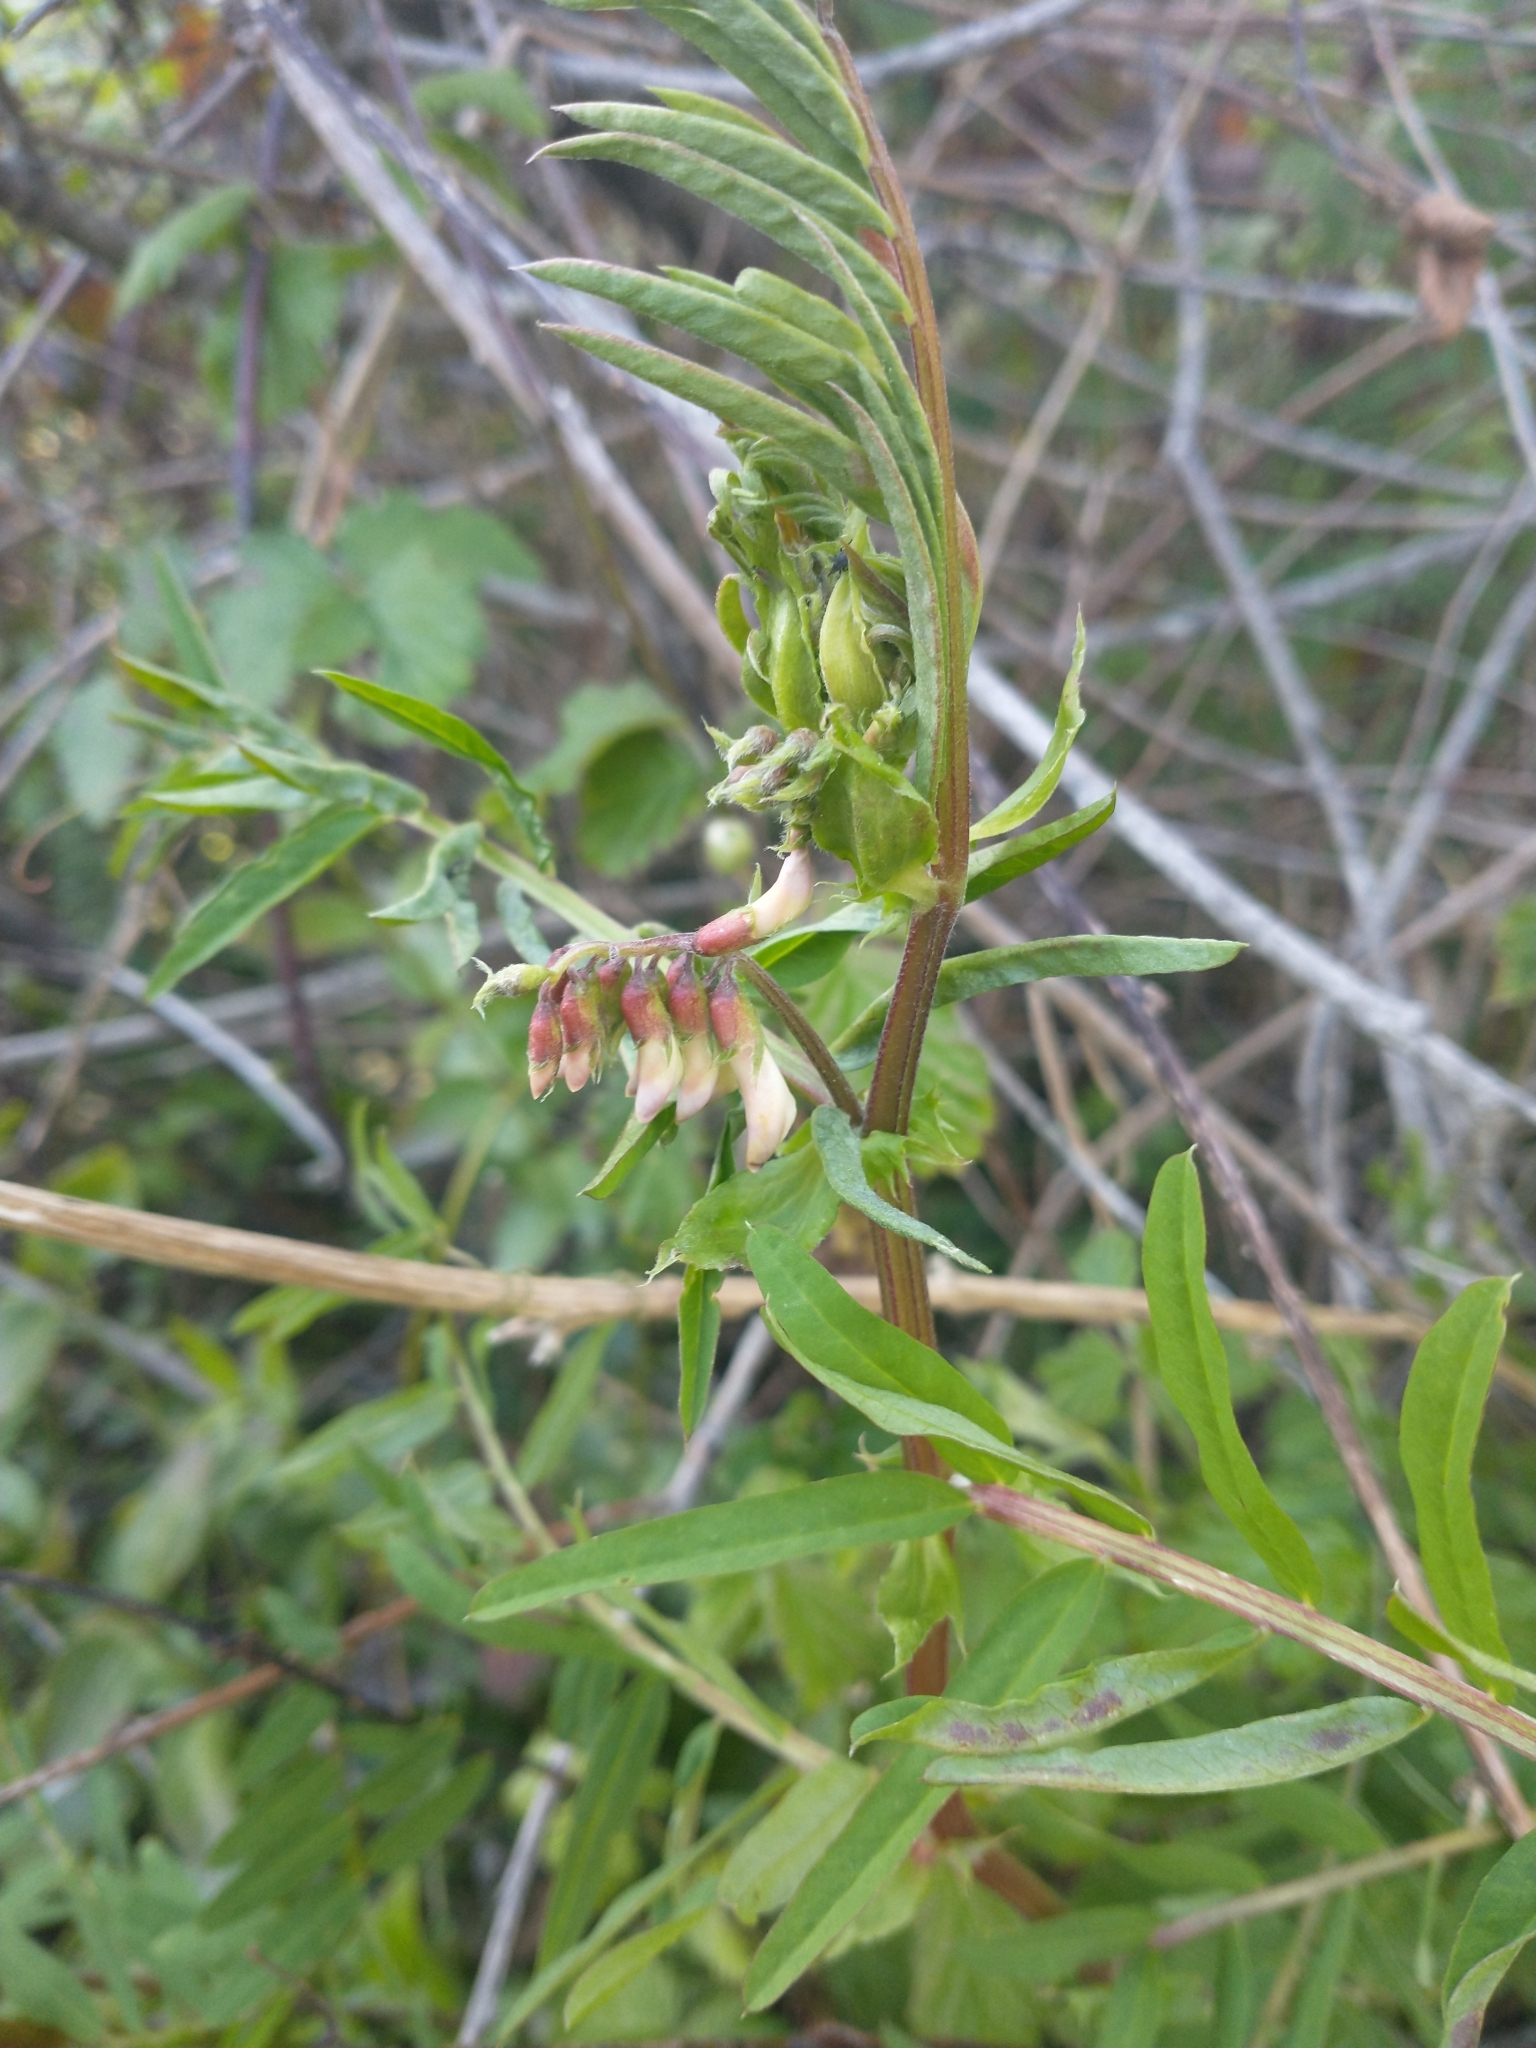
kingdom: Plantae
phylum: Tracheophyta
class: Magnoliopsida
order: Fabales
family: Fabaceae
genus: Vicia
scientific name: Vicia
